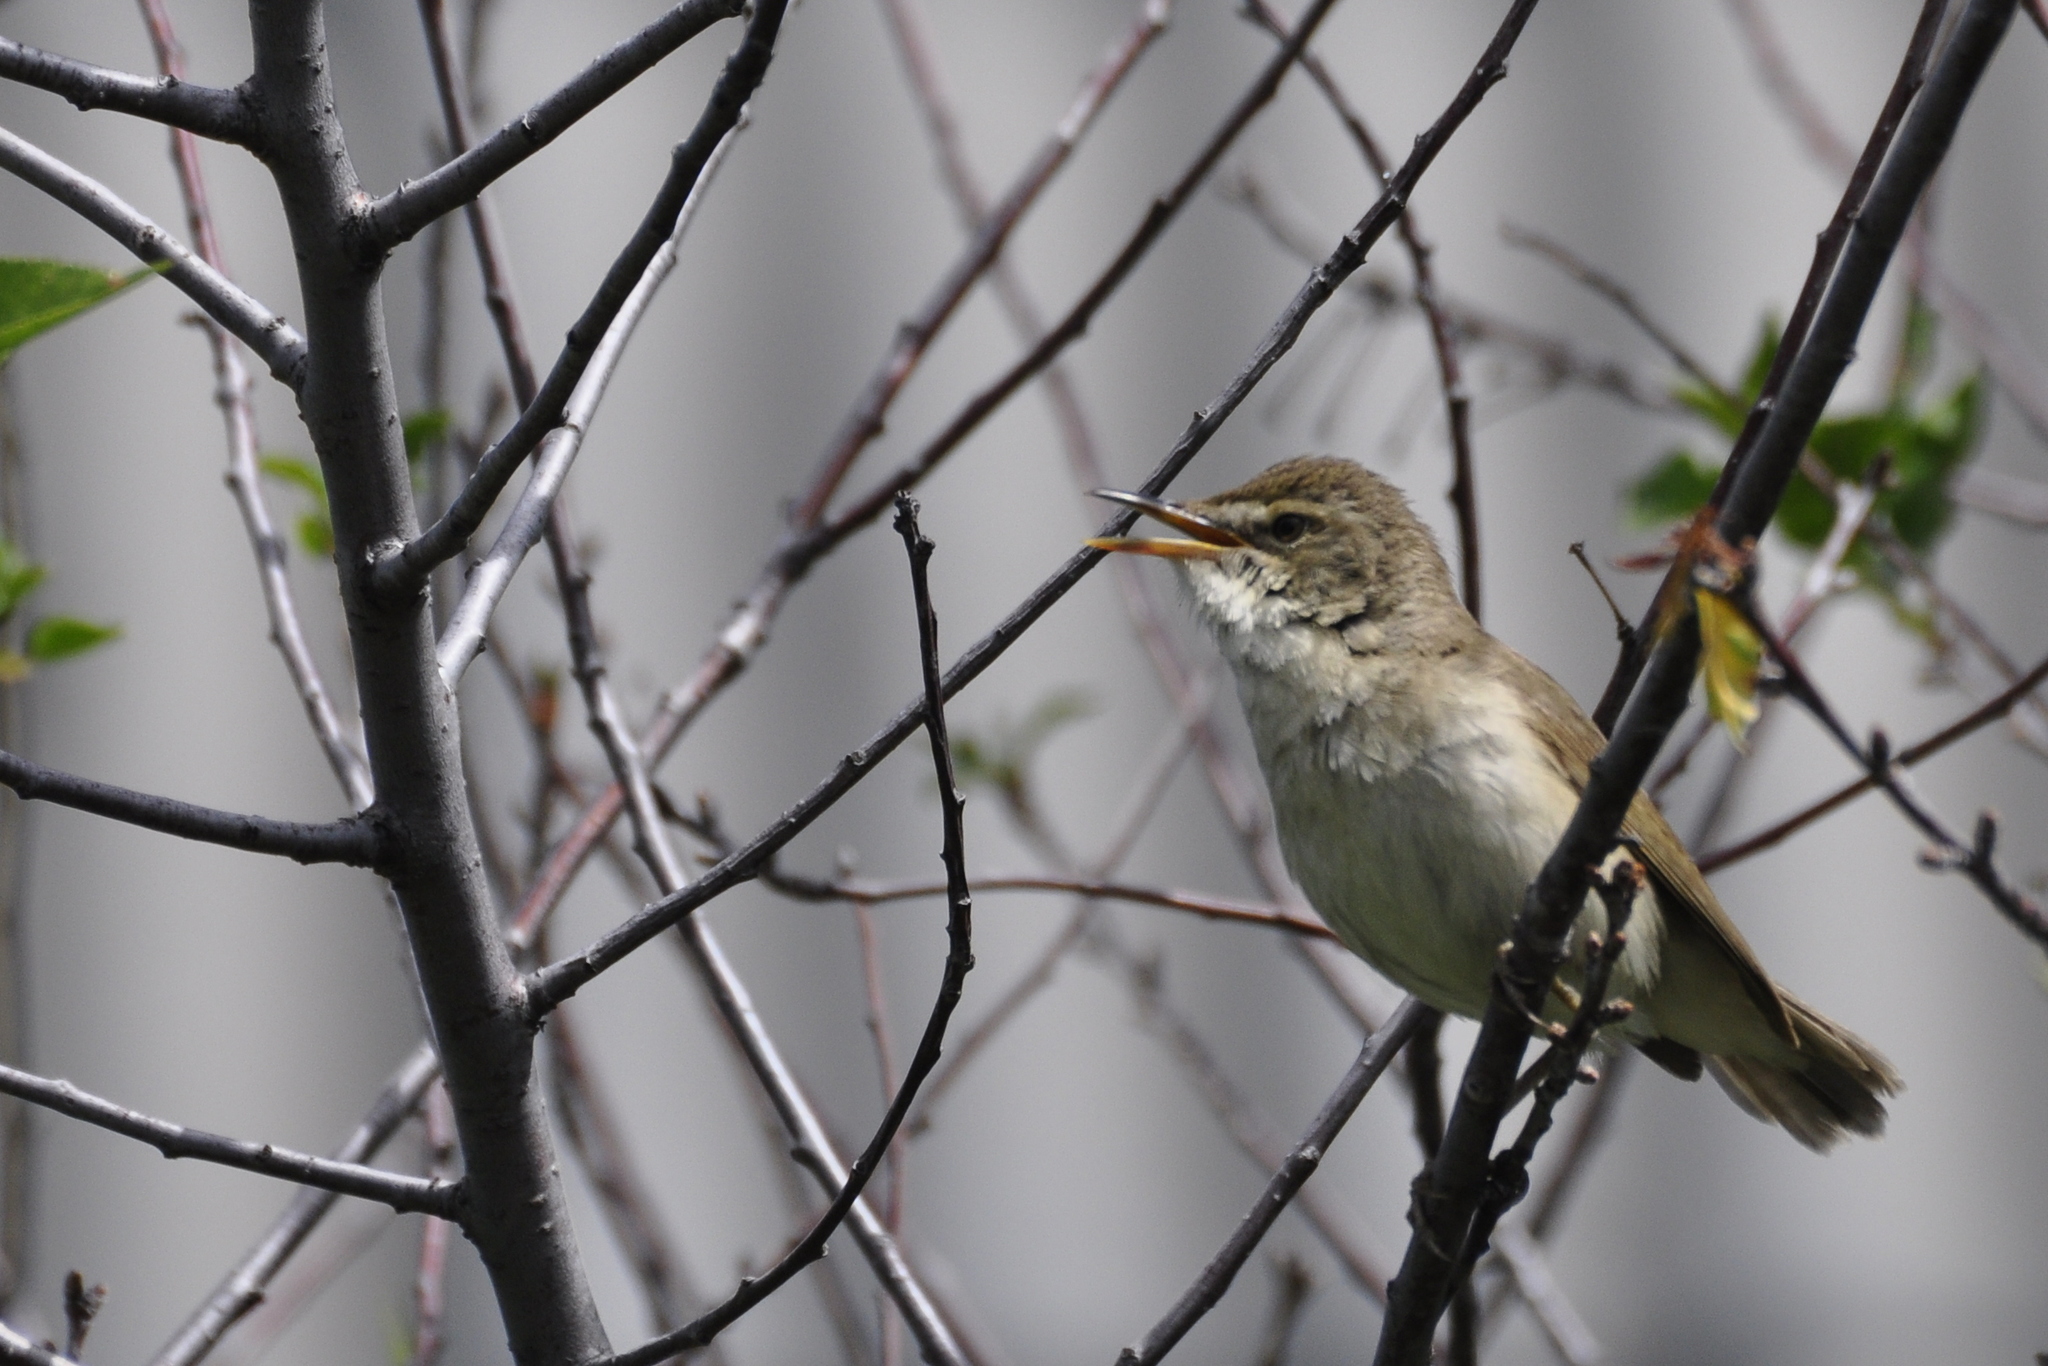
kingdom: Animalia
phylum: Chordata
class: Aves
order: Passeriformes
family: Acrocephalidae
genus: Acrocephalus
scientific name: Acrocephalus dumetorum
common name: Blyth's reed warbler
